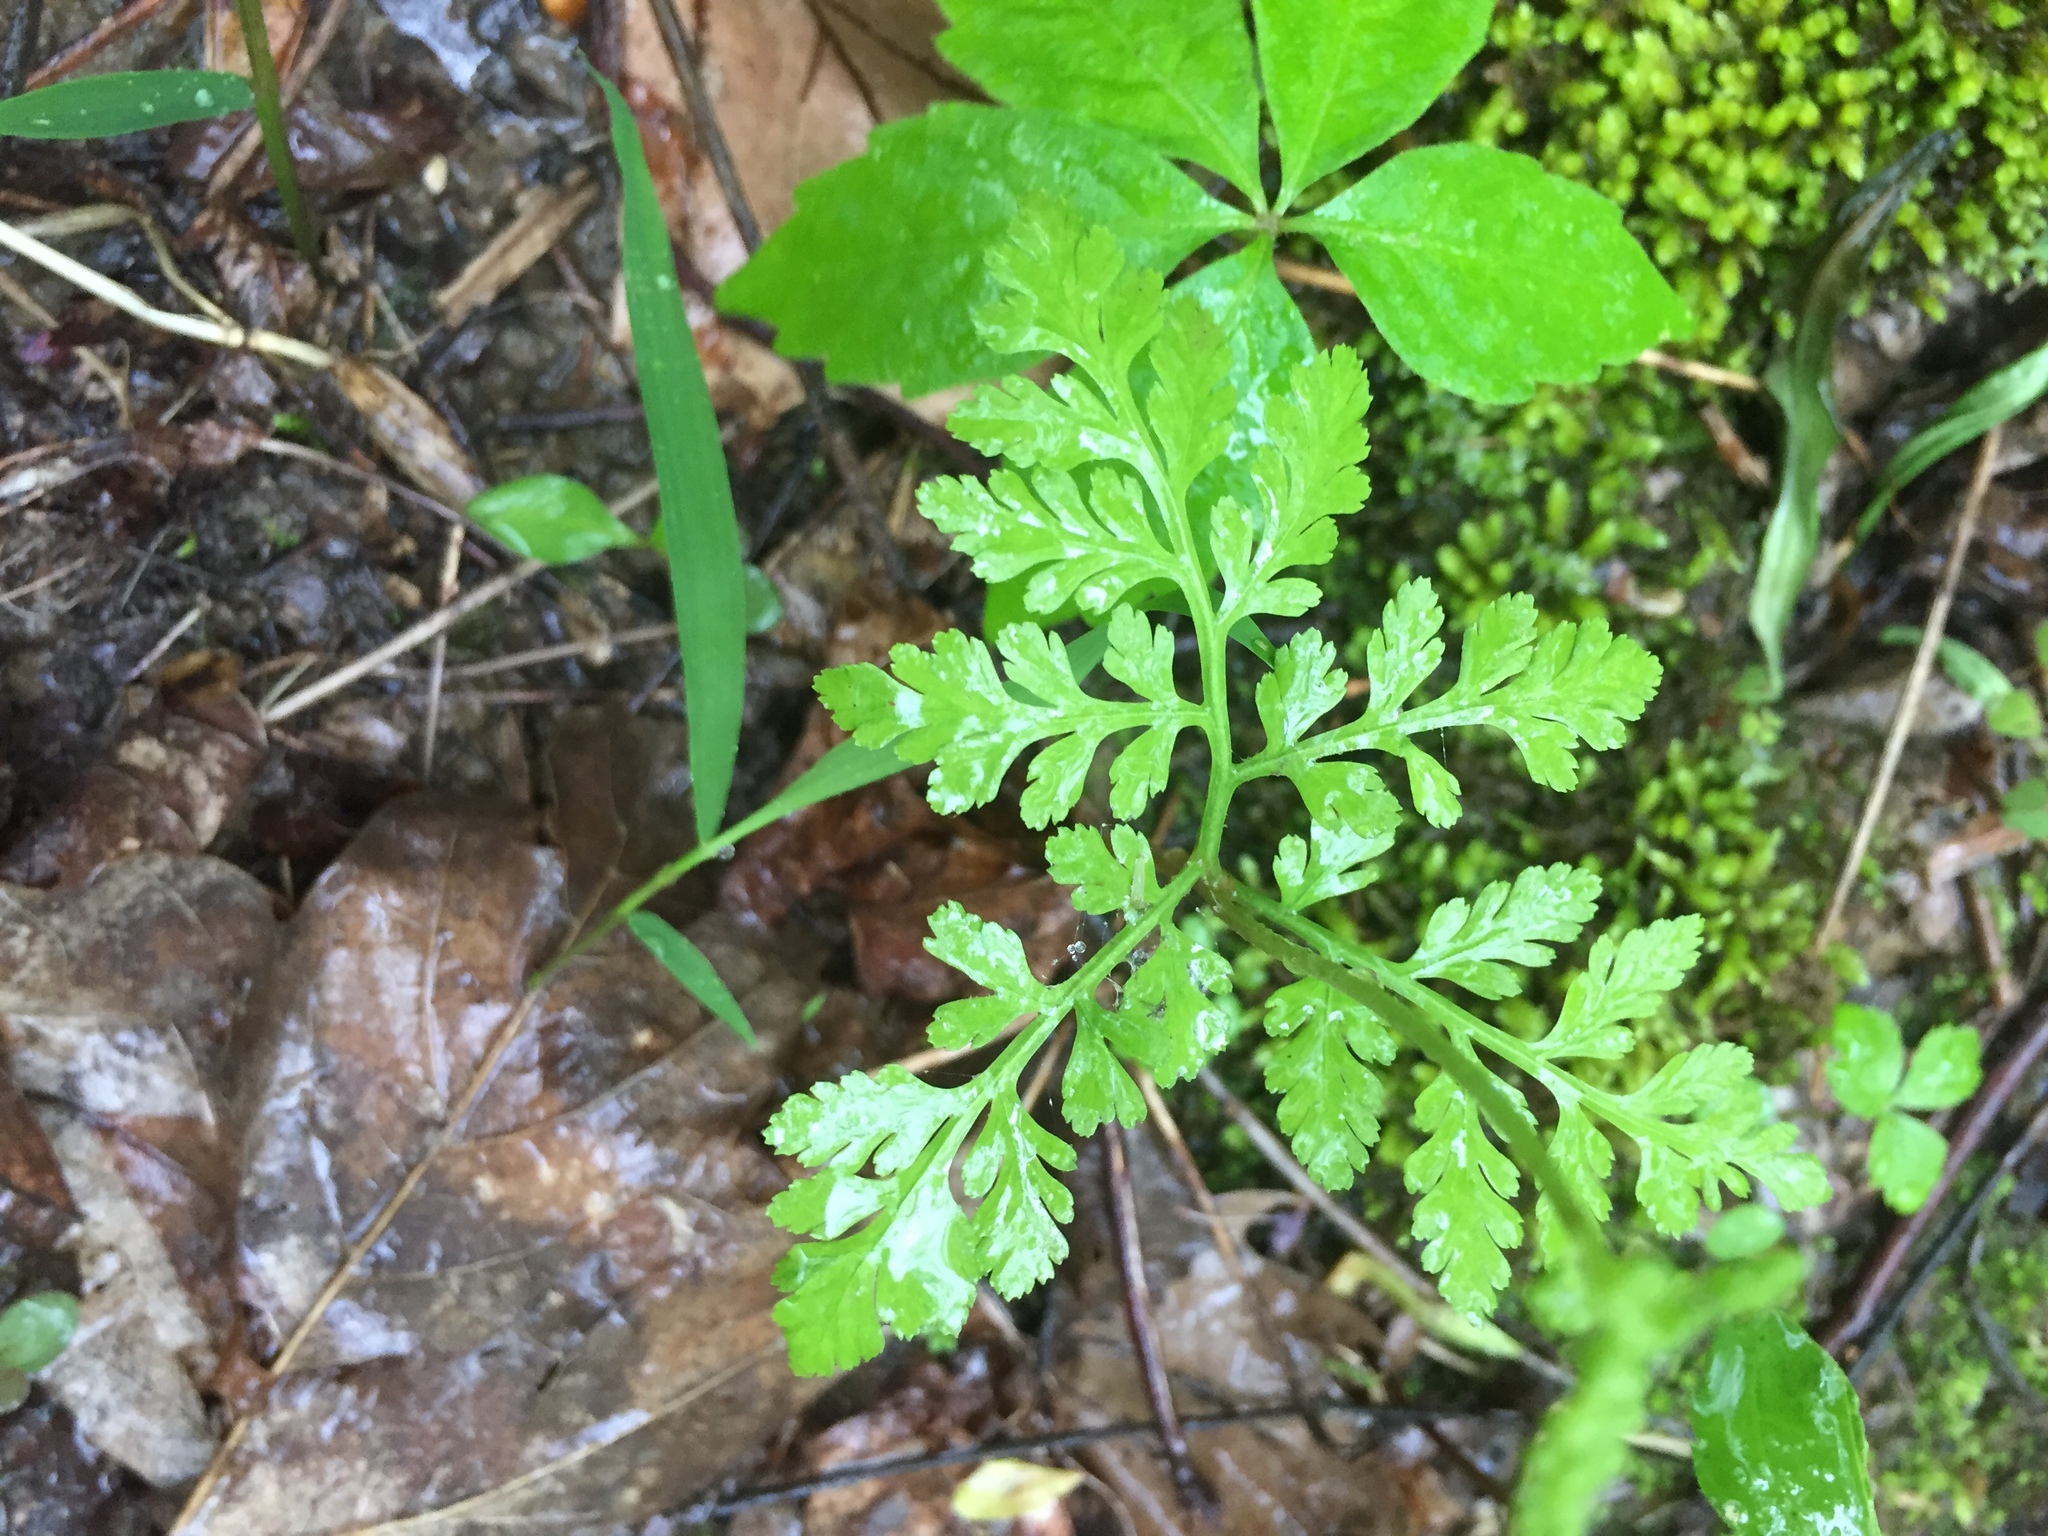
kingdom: Plantae
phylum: Tracheophyta
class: Polypodiopsida
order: Ophioglossales
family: Ophioglossaceae
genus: Botrypus
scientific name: Botrypus virginianus
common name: Common grapefern
